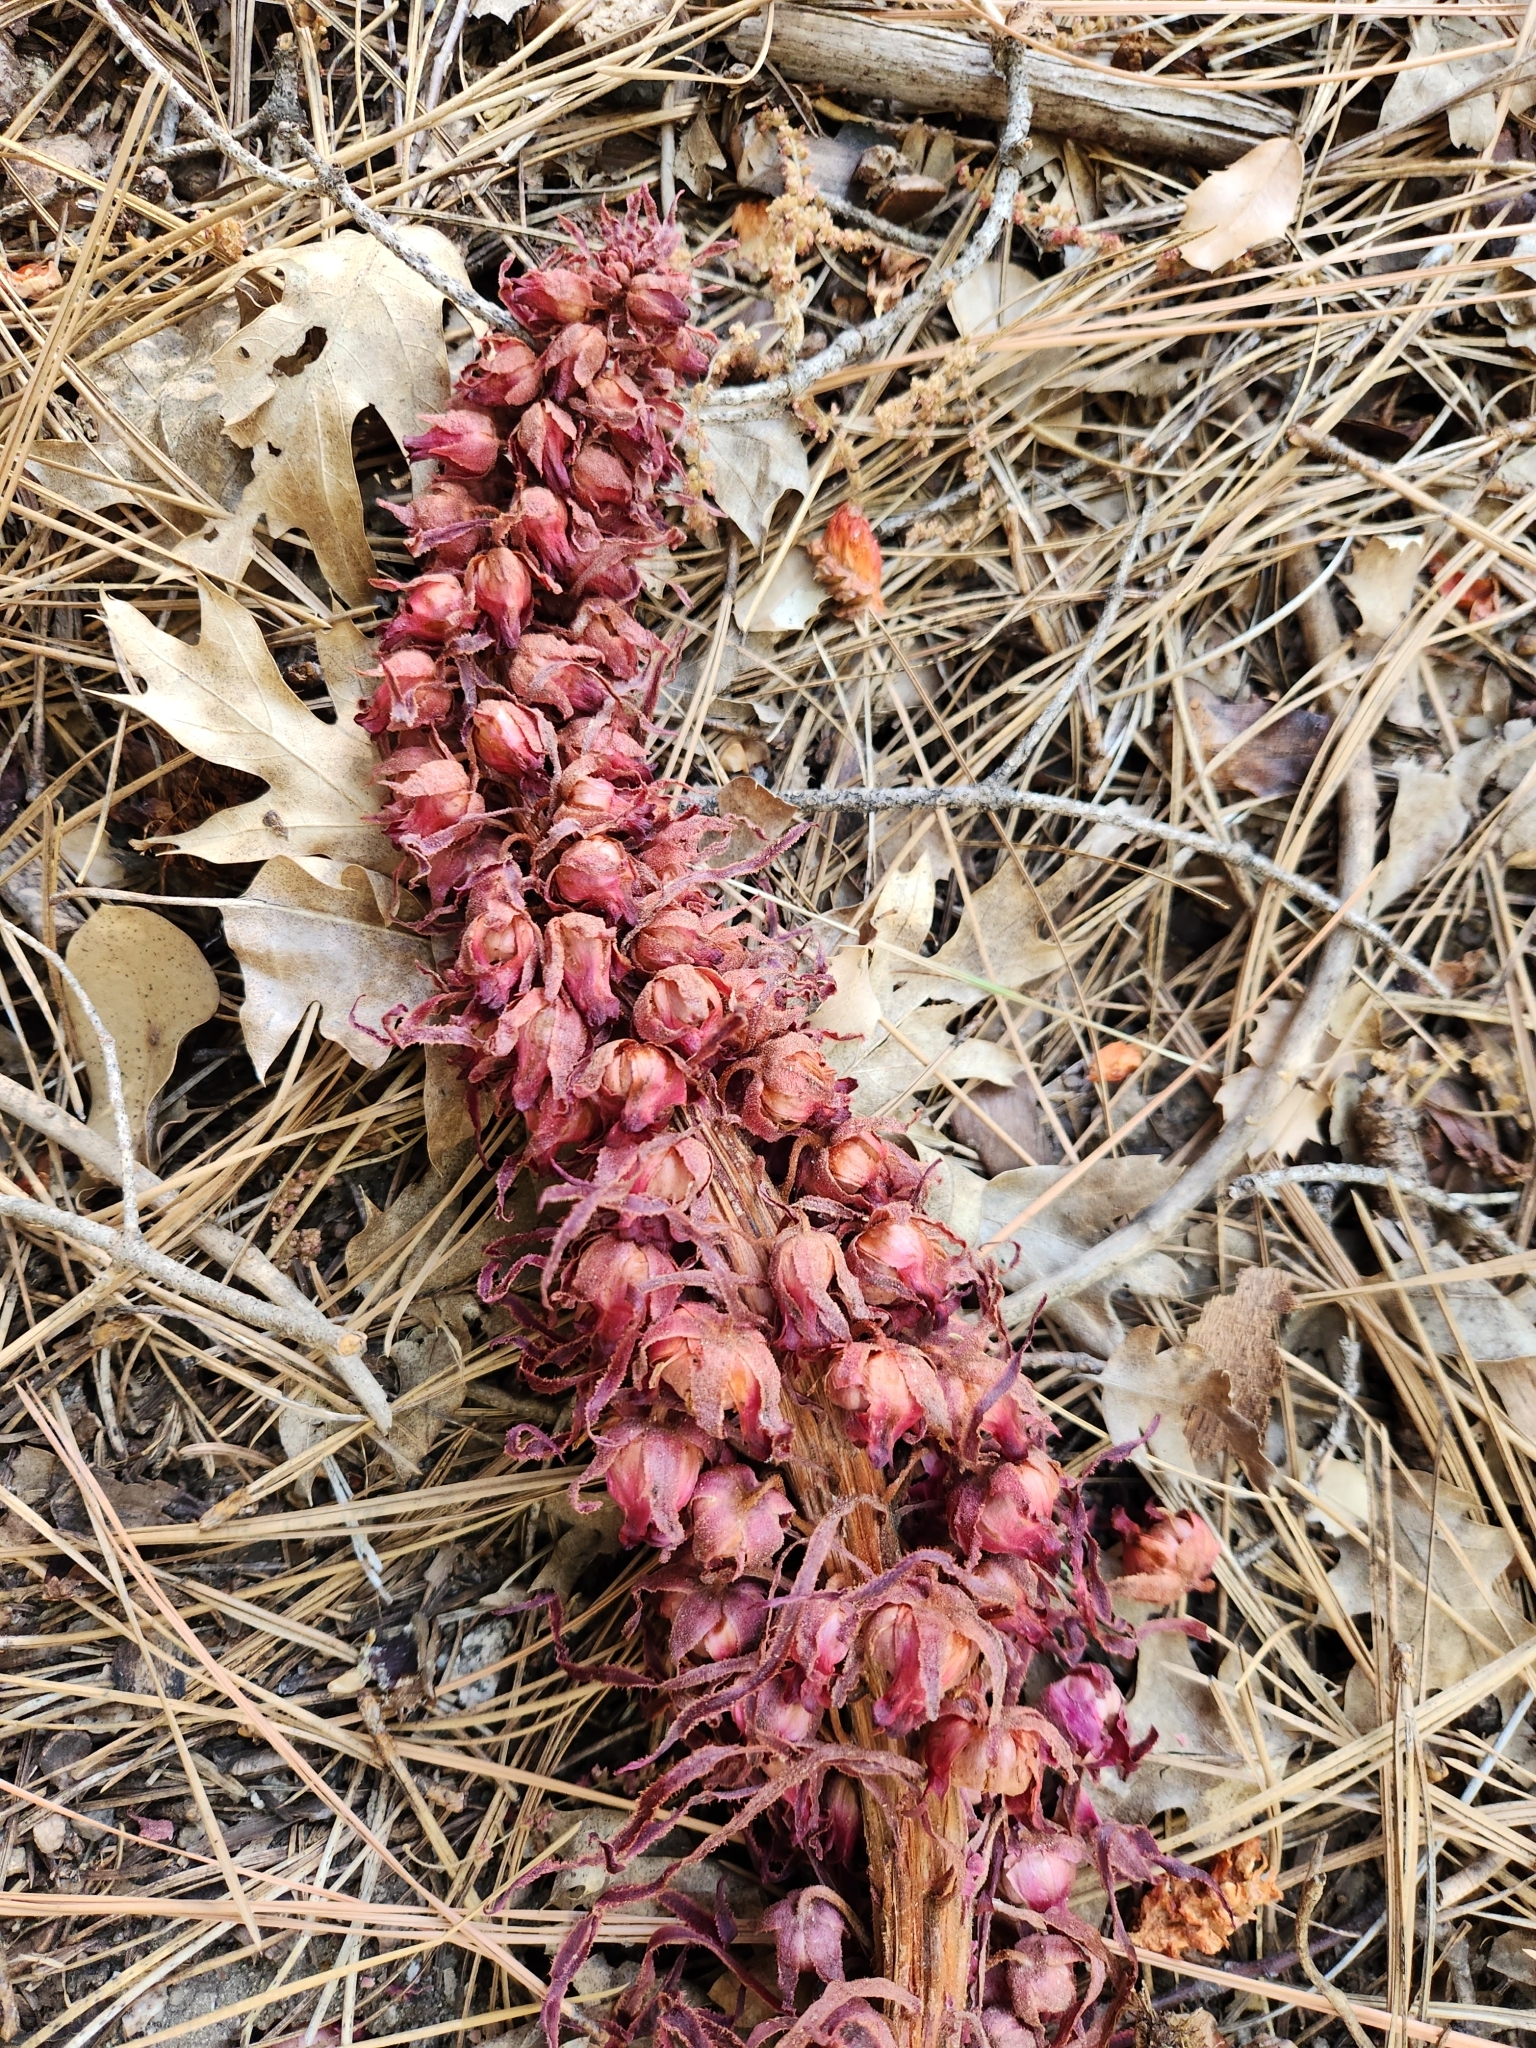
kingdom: Plantae
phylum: Tracheophyta
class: Magnoliopsida
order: Ericales
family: Ericaceae
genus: Sarcodes
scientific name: Sarcodes sanguinea
